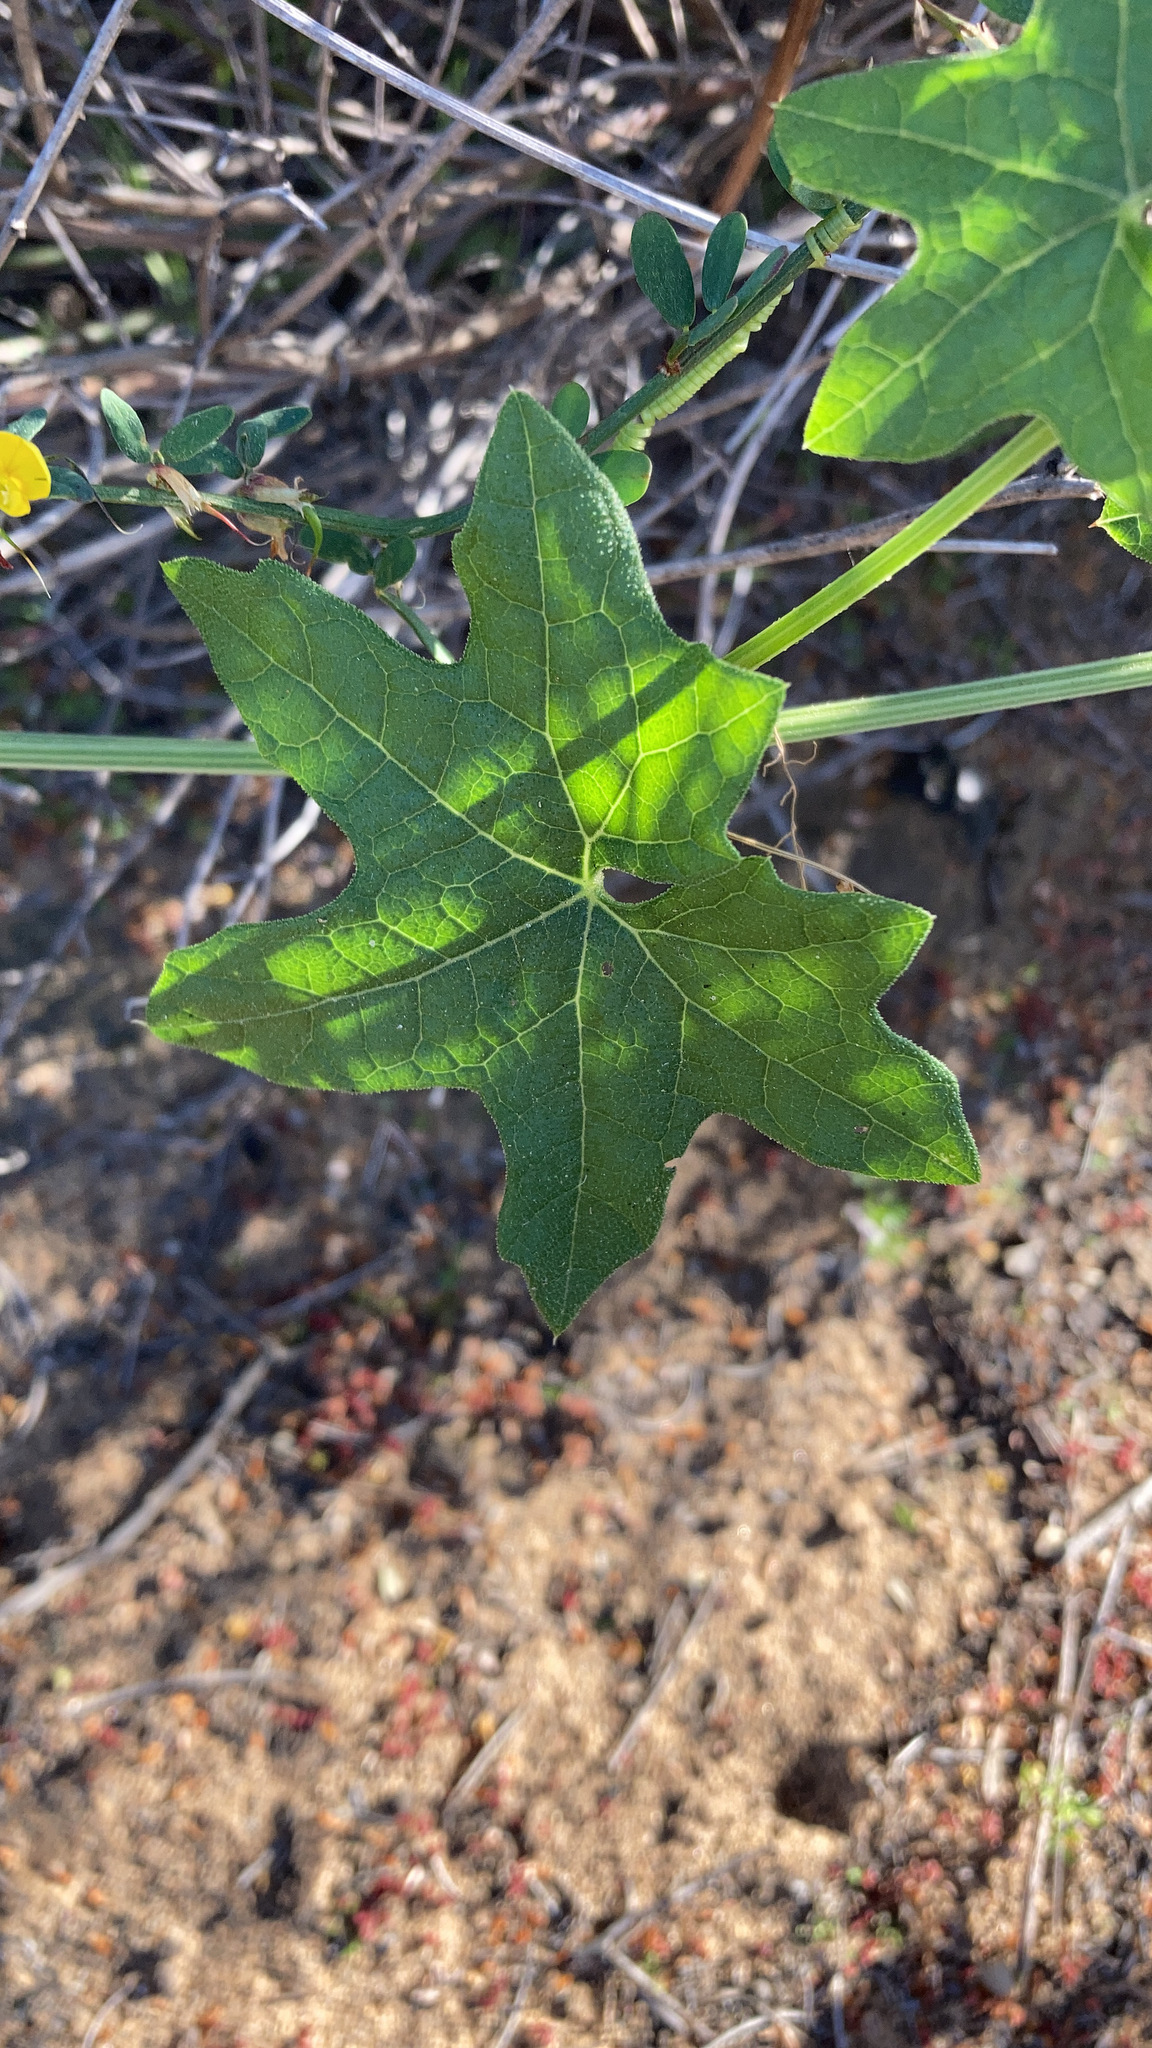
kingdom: Plantae
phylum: Tracheophyta
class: Magnoliopsida
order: Cucurbitales
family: Cucurbitaceae
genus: Marah
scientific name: Marah macrocarpa
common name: Cucamonga manroot
